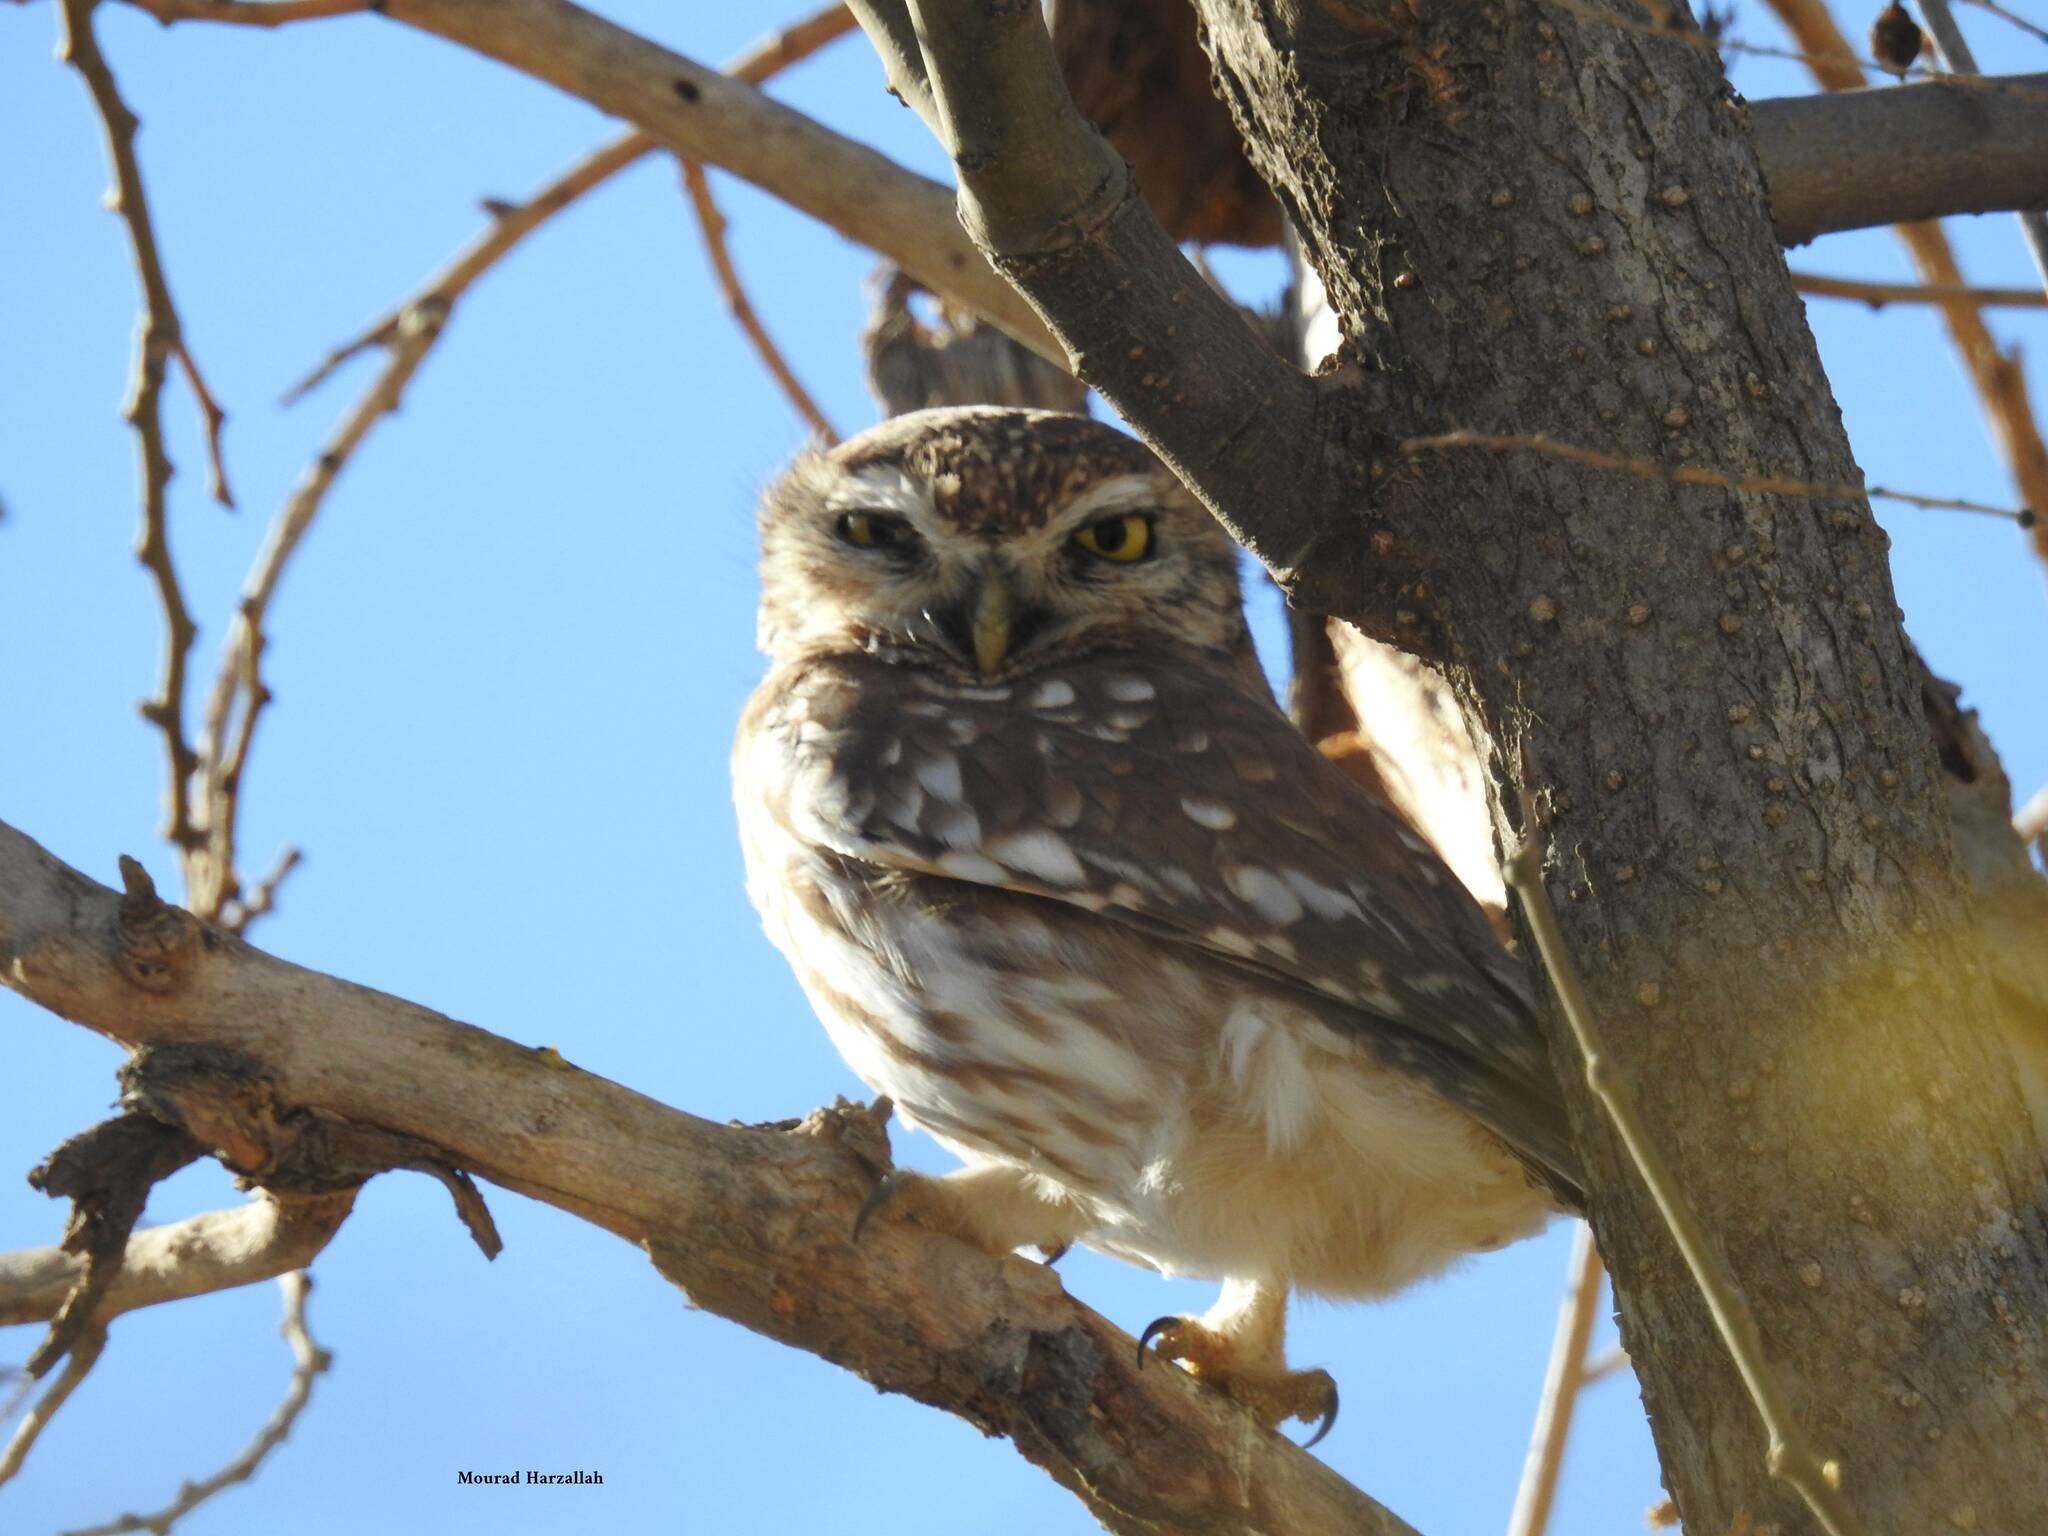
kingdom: Animalia
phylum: Chordata
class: Aves
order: Strigiformes
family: Strigidae
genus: Athene
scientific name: Athene noctua
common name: Little owl
